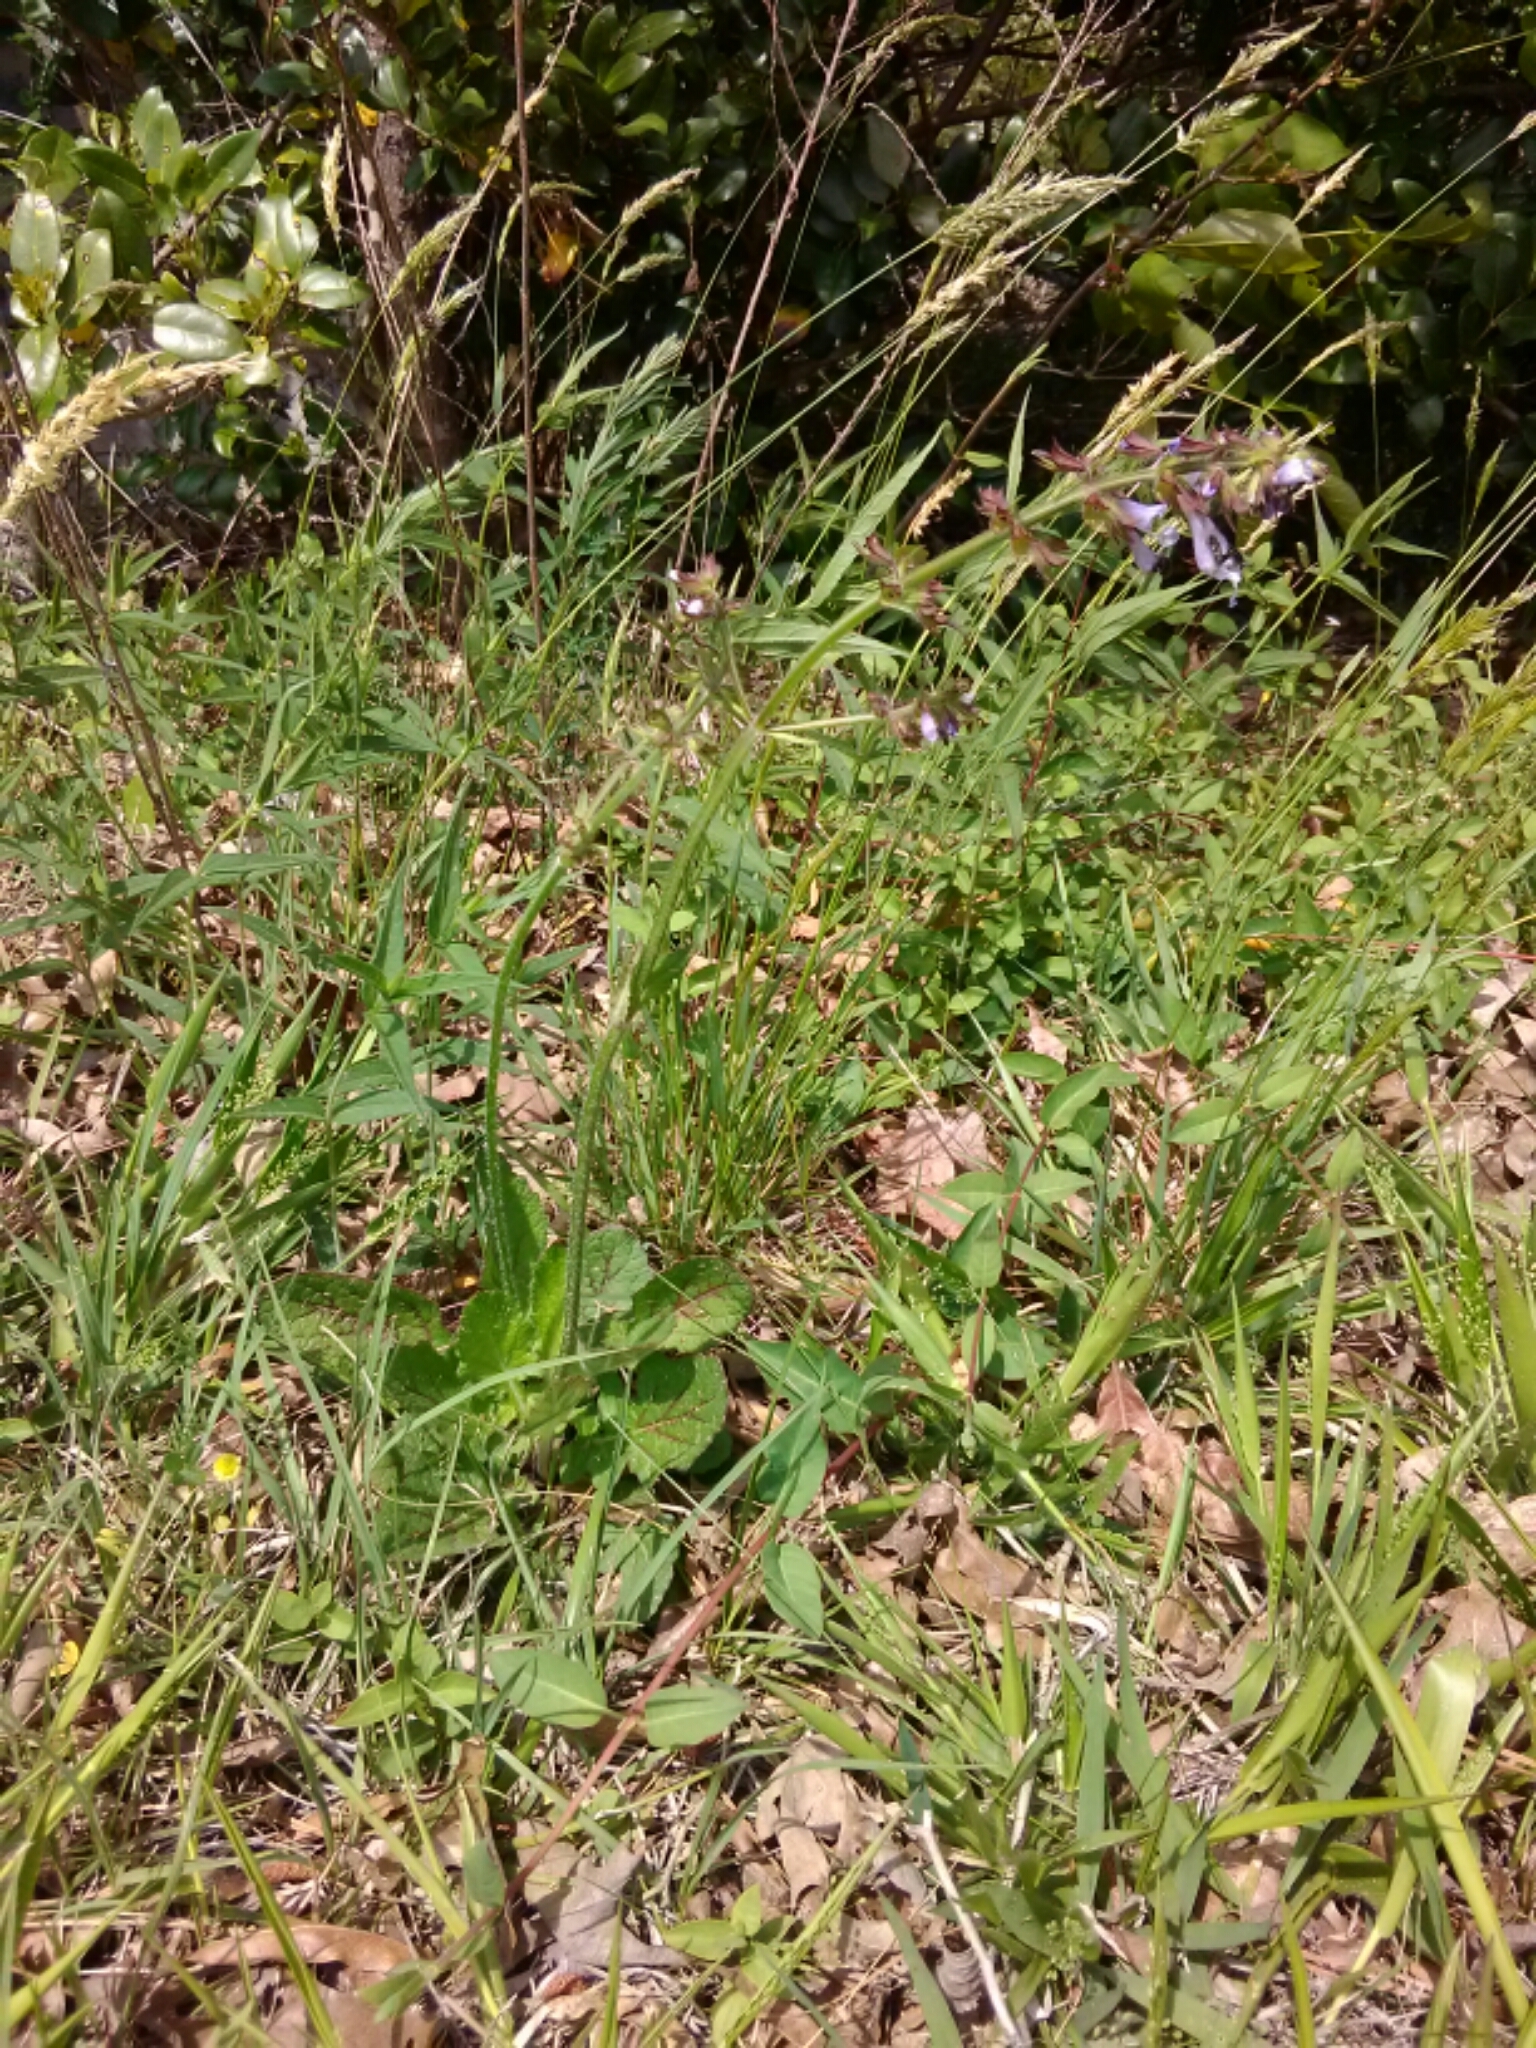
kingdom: Plantae
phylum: Tracheophyta
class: Magnoliopsida
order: Lamiales
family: Lamiaceae
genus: Salvia
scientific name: Salvia lyrata
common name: Cancerweed
